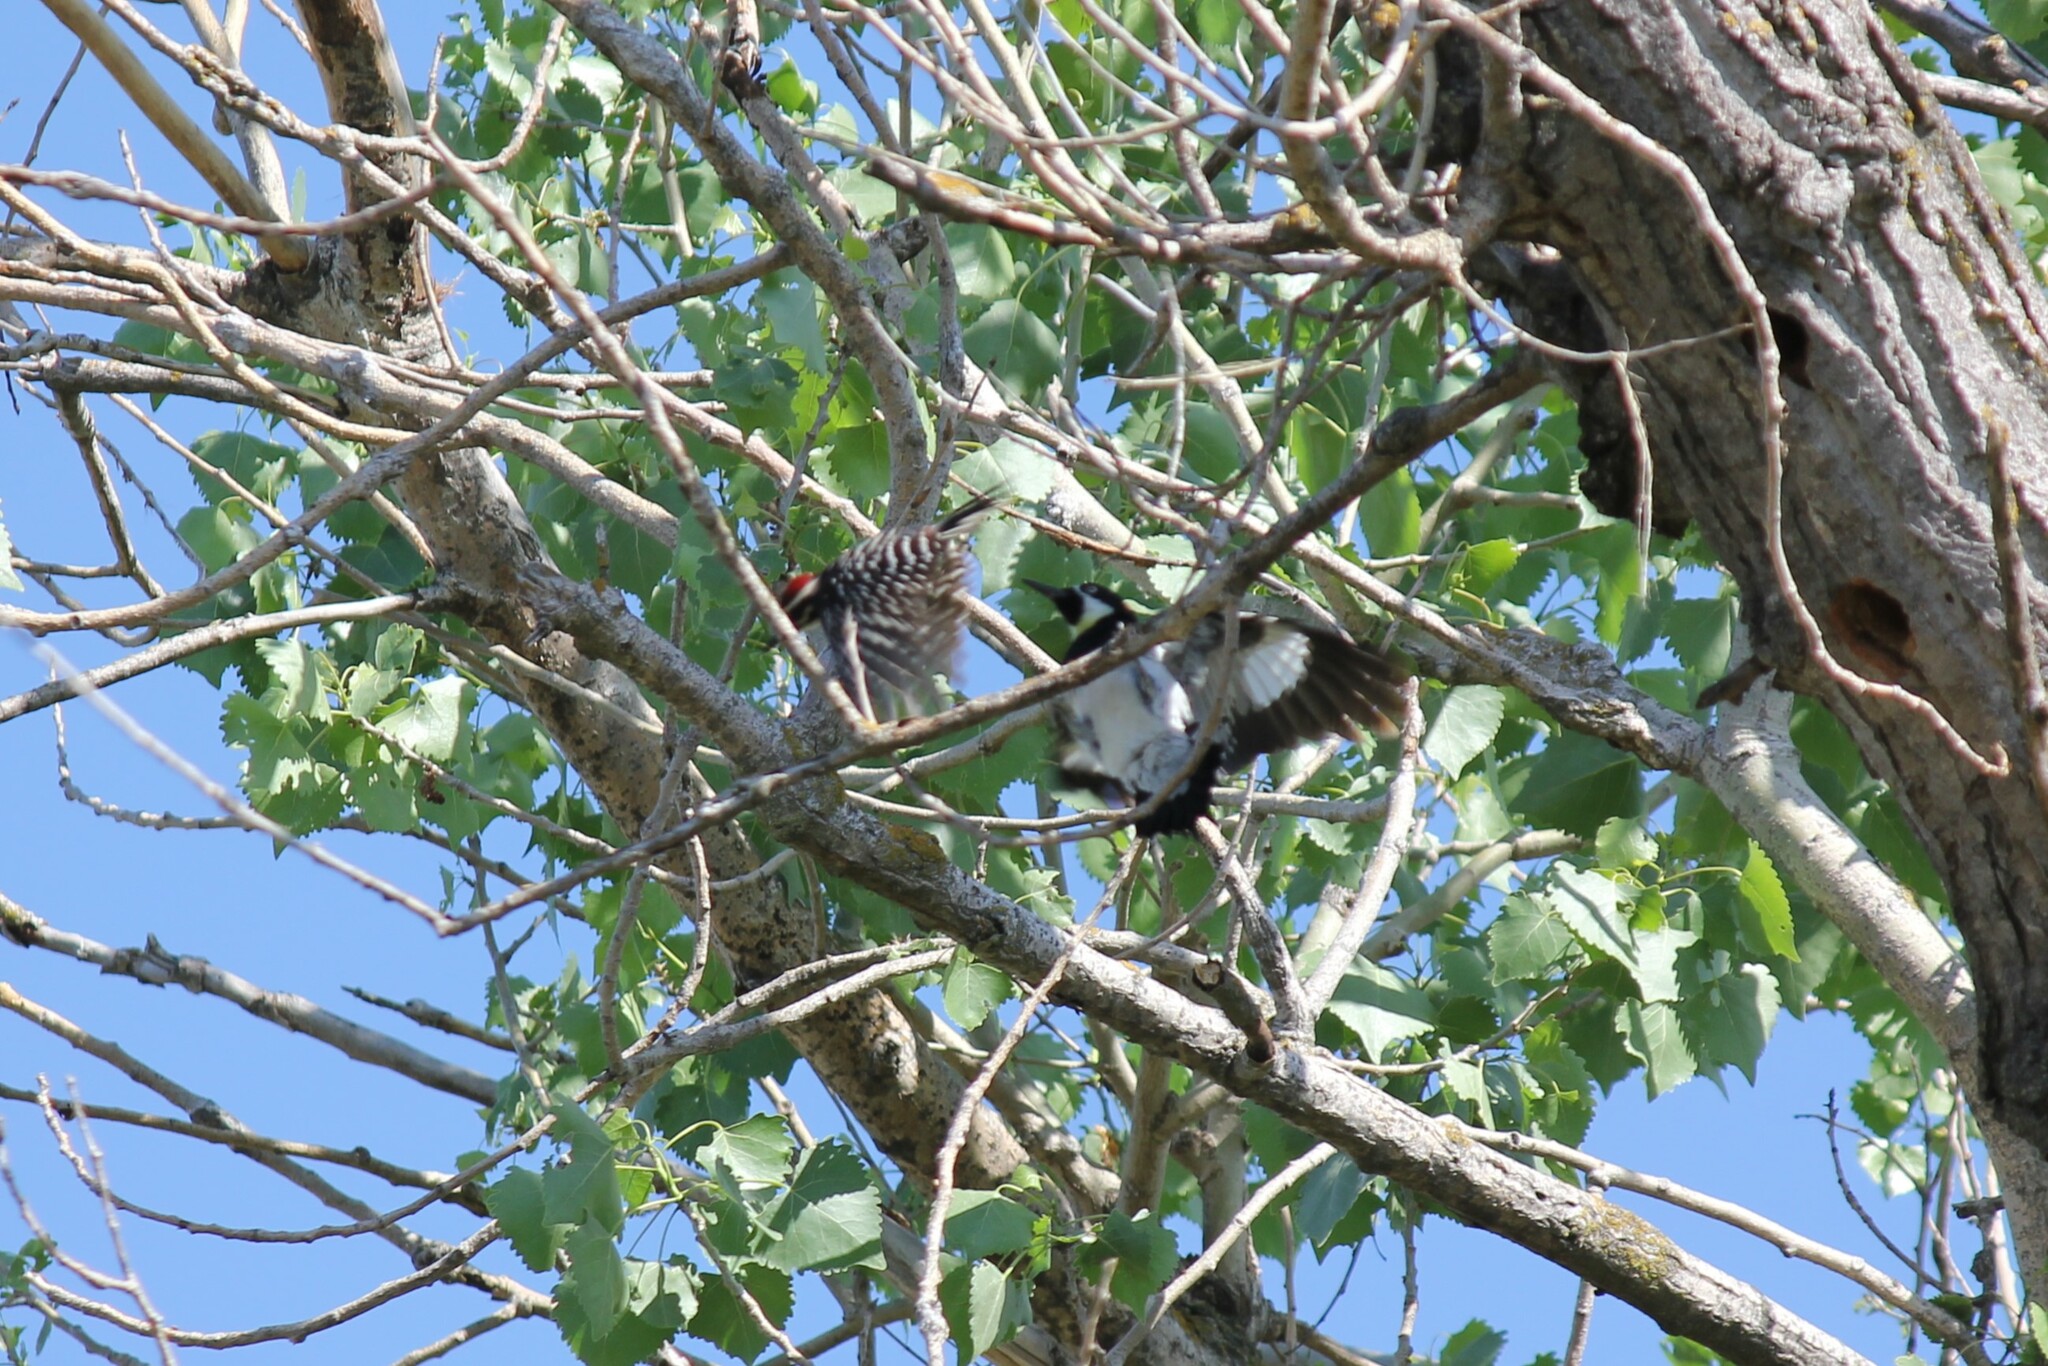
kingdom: Animalia
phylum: Chordata
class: Aves
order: Piciformes
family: Picidae
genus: Melanerpes
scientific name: Melanerpes formicivorus
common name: Acorn woodpecker
